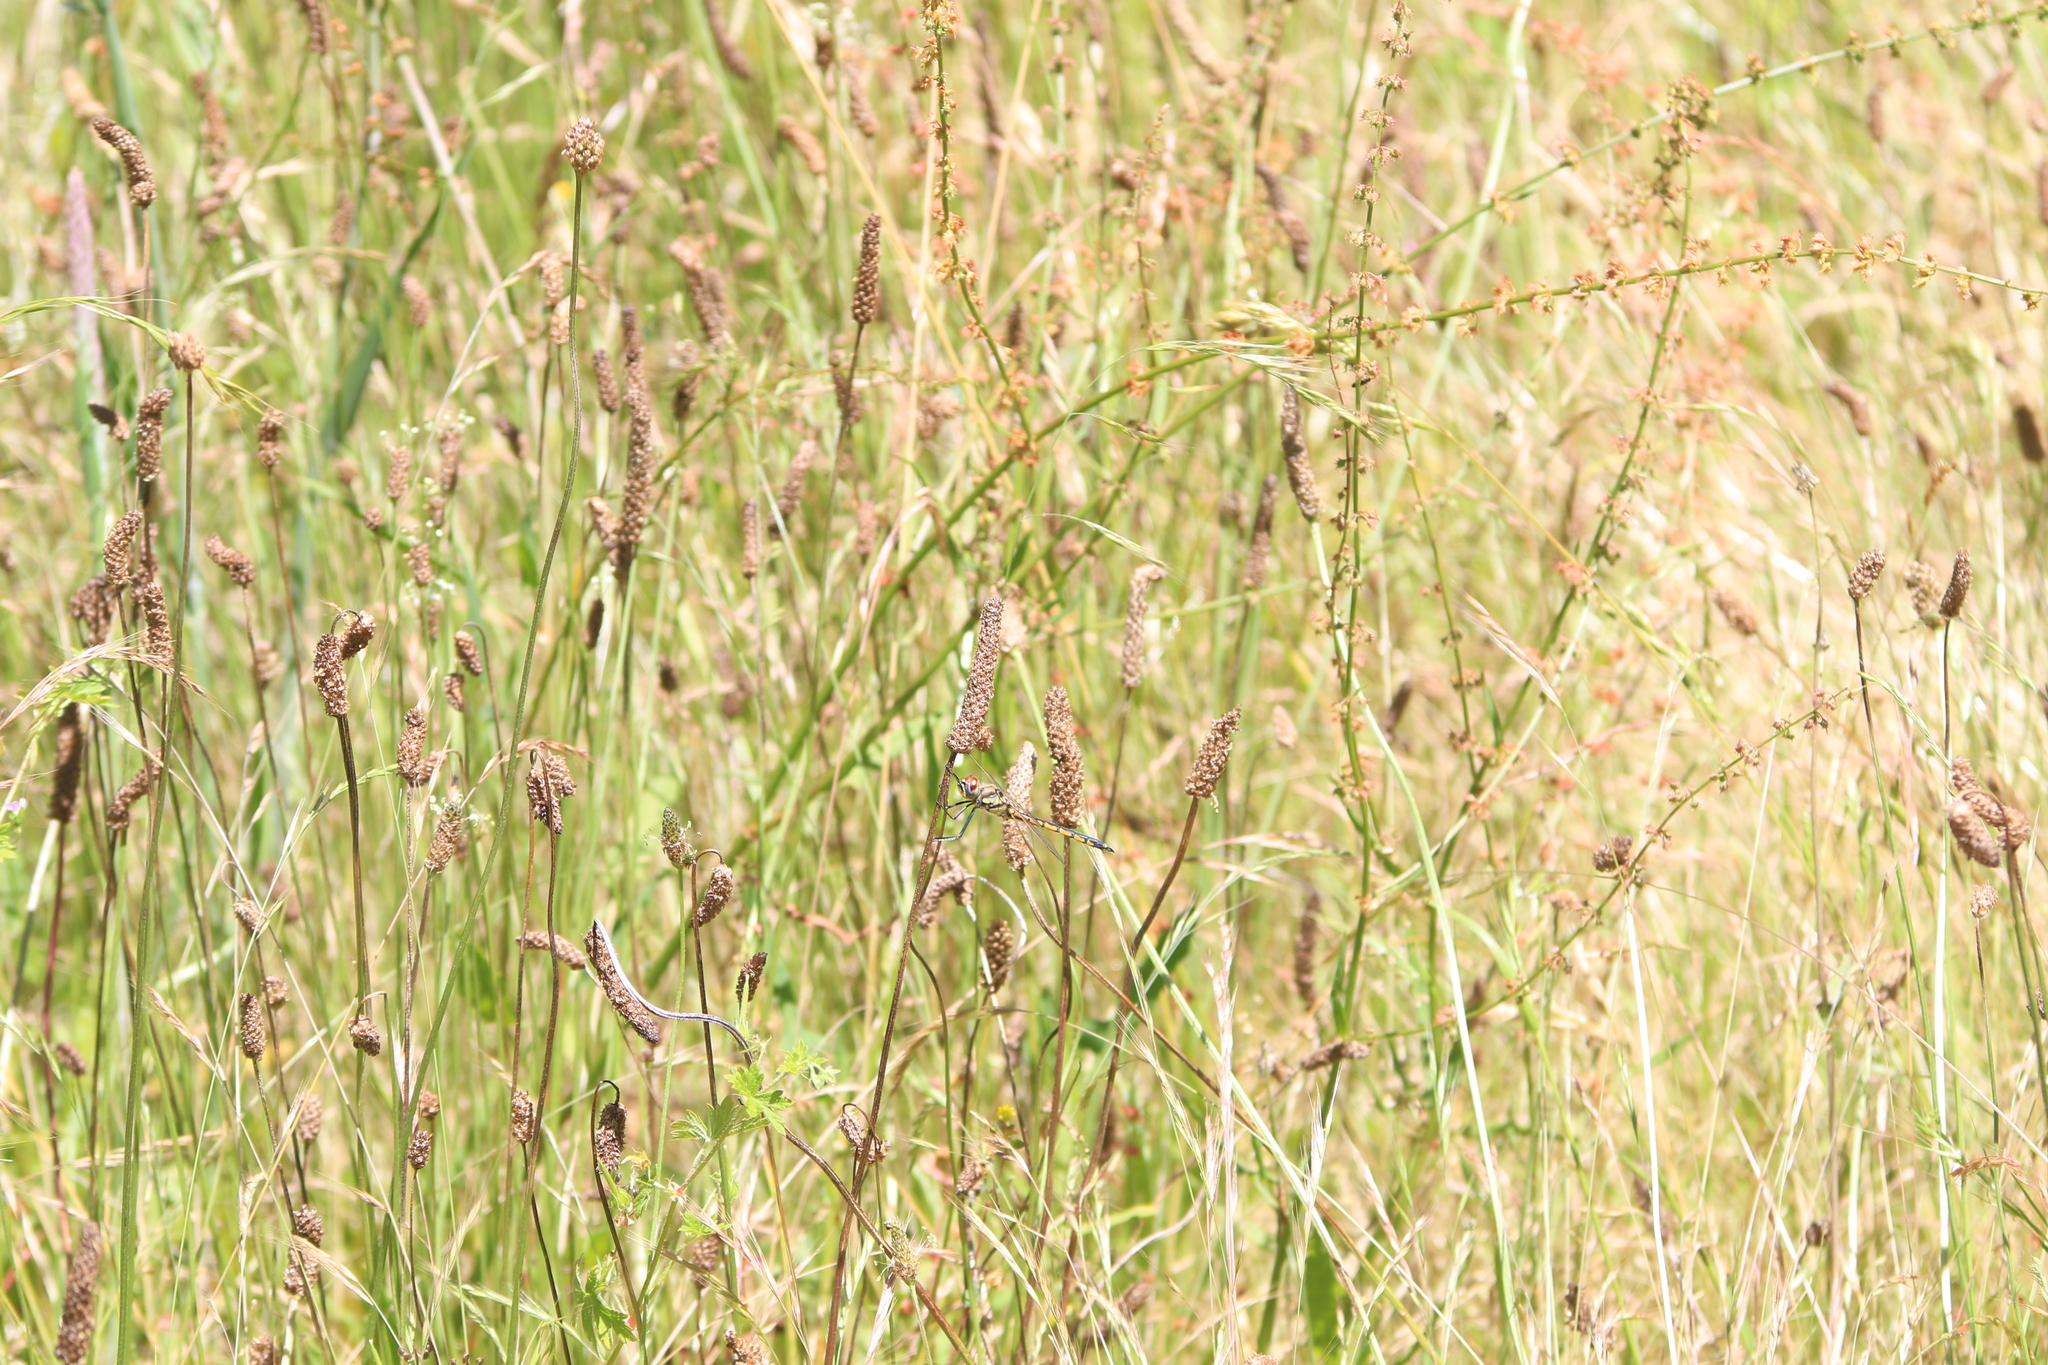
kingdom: Animalia
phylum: Arthropoda
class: Insecta
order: Odonata
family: Corduliidae
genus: Hemicordulia
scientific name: Hemicordulia tau
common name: Tau emerald
